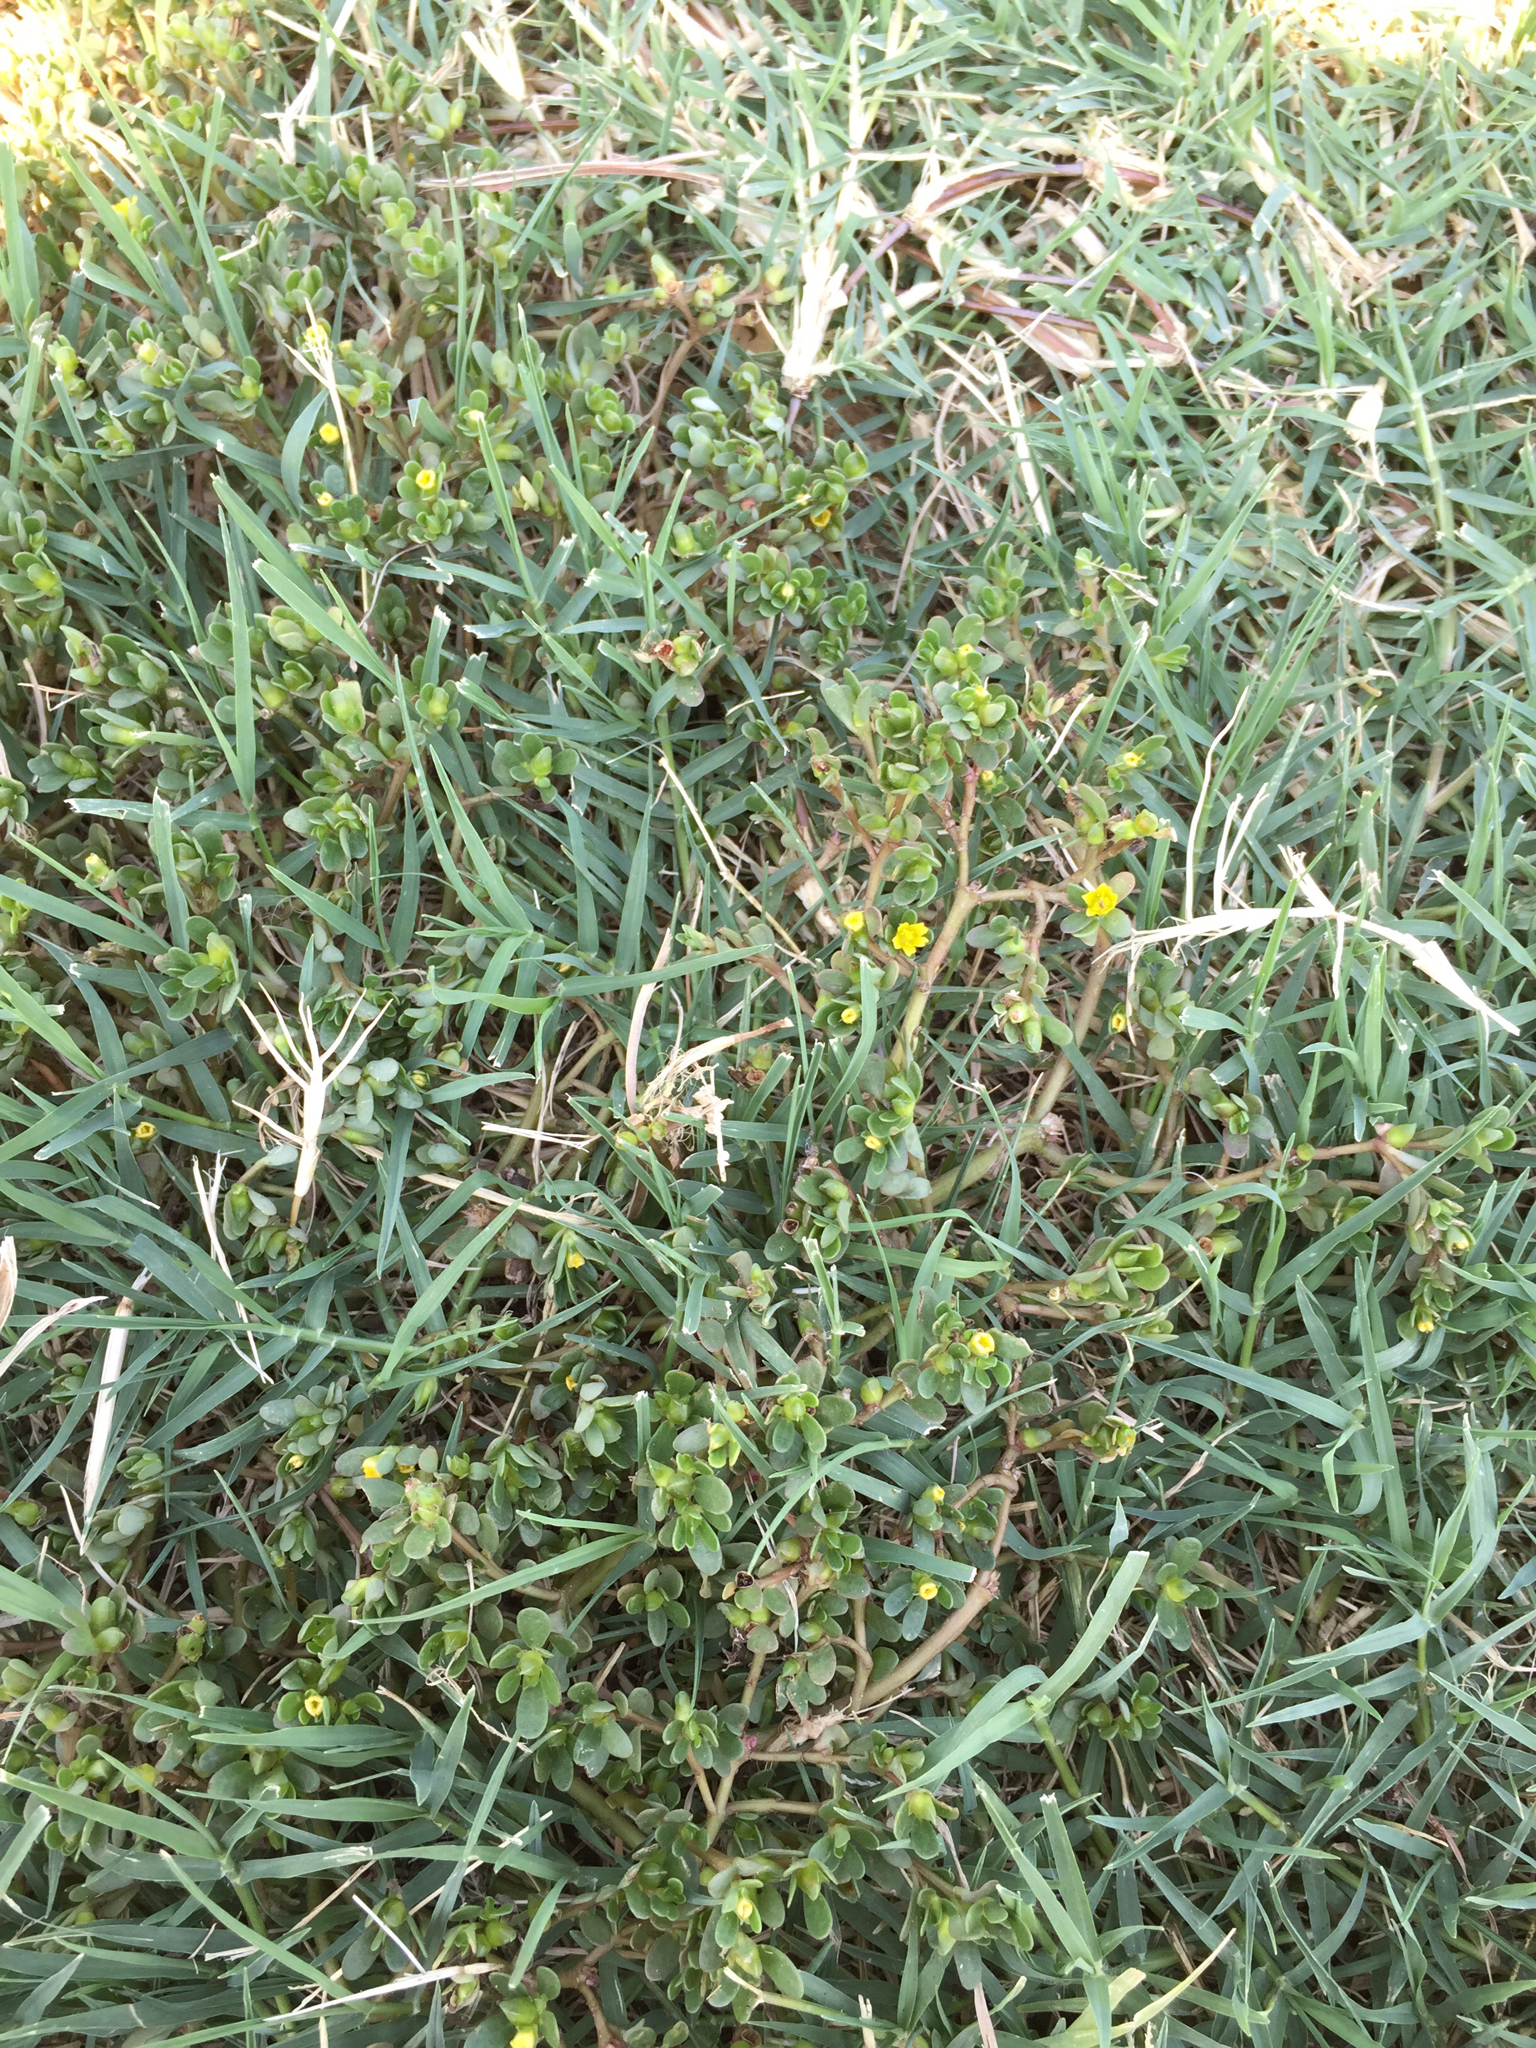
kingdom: Plantae
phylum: Tracheophyta
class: Magnoliopsida
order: Caryophyllales
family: Portulacaceae
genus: Portulaca
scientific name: Portulaca oleracea
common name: Common purslane
